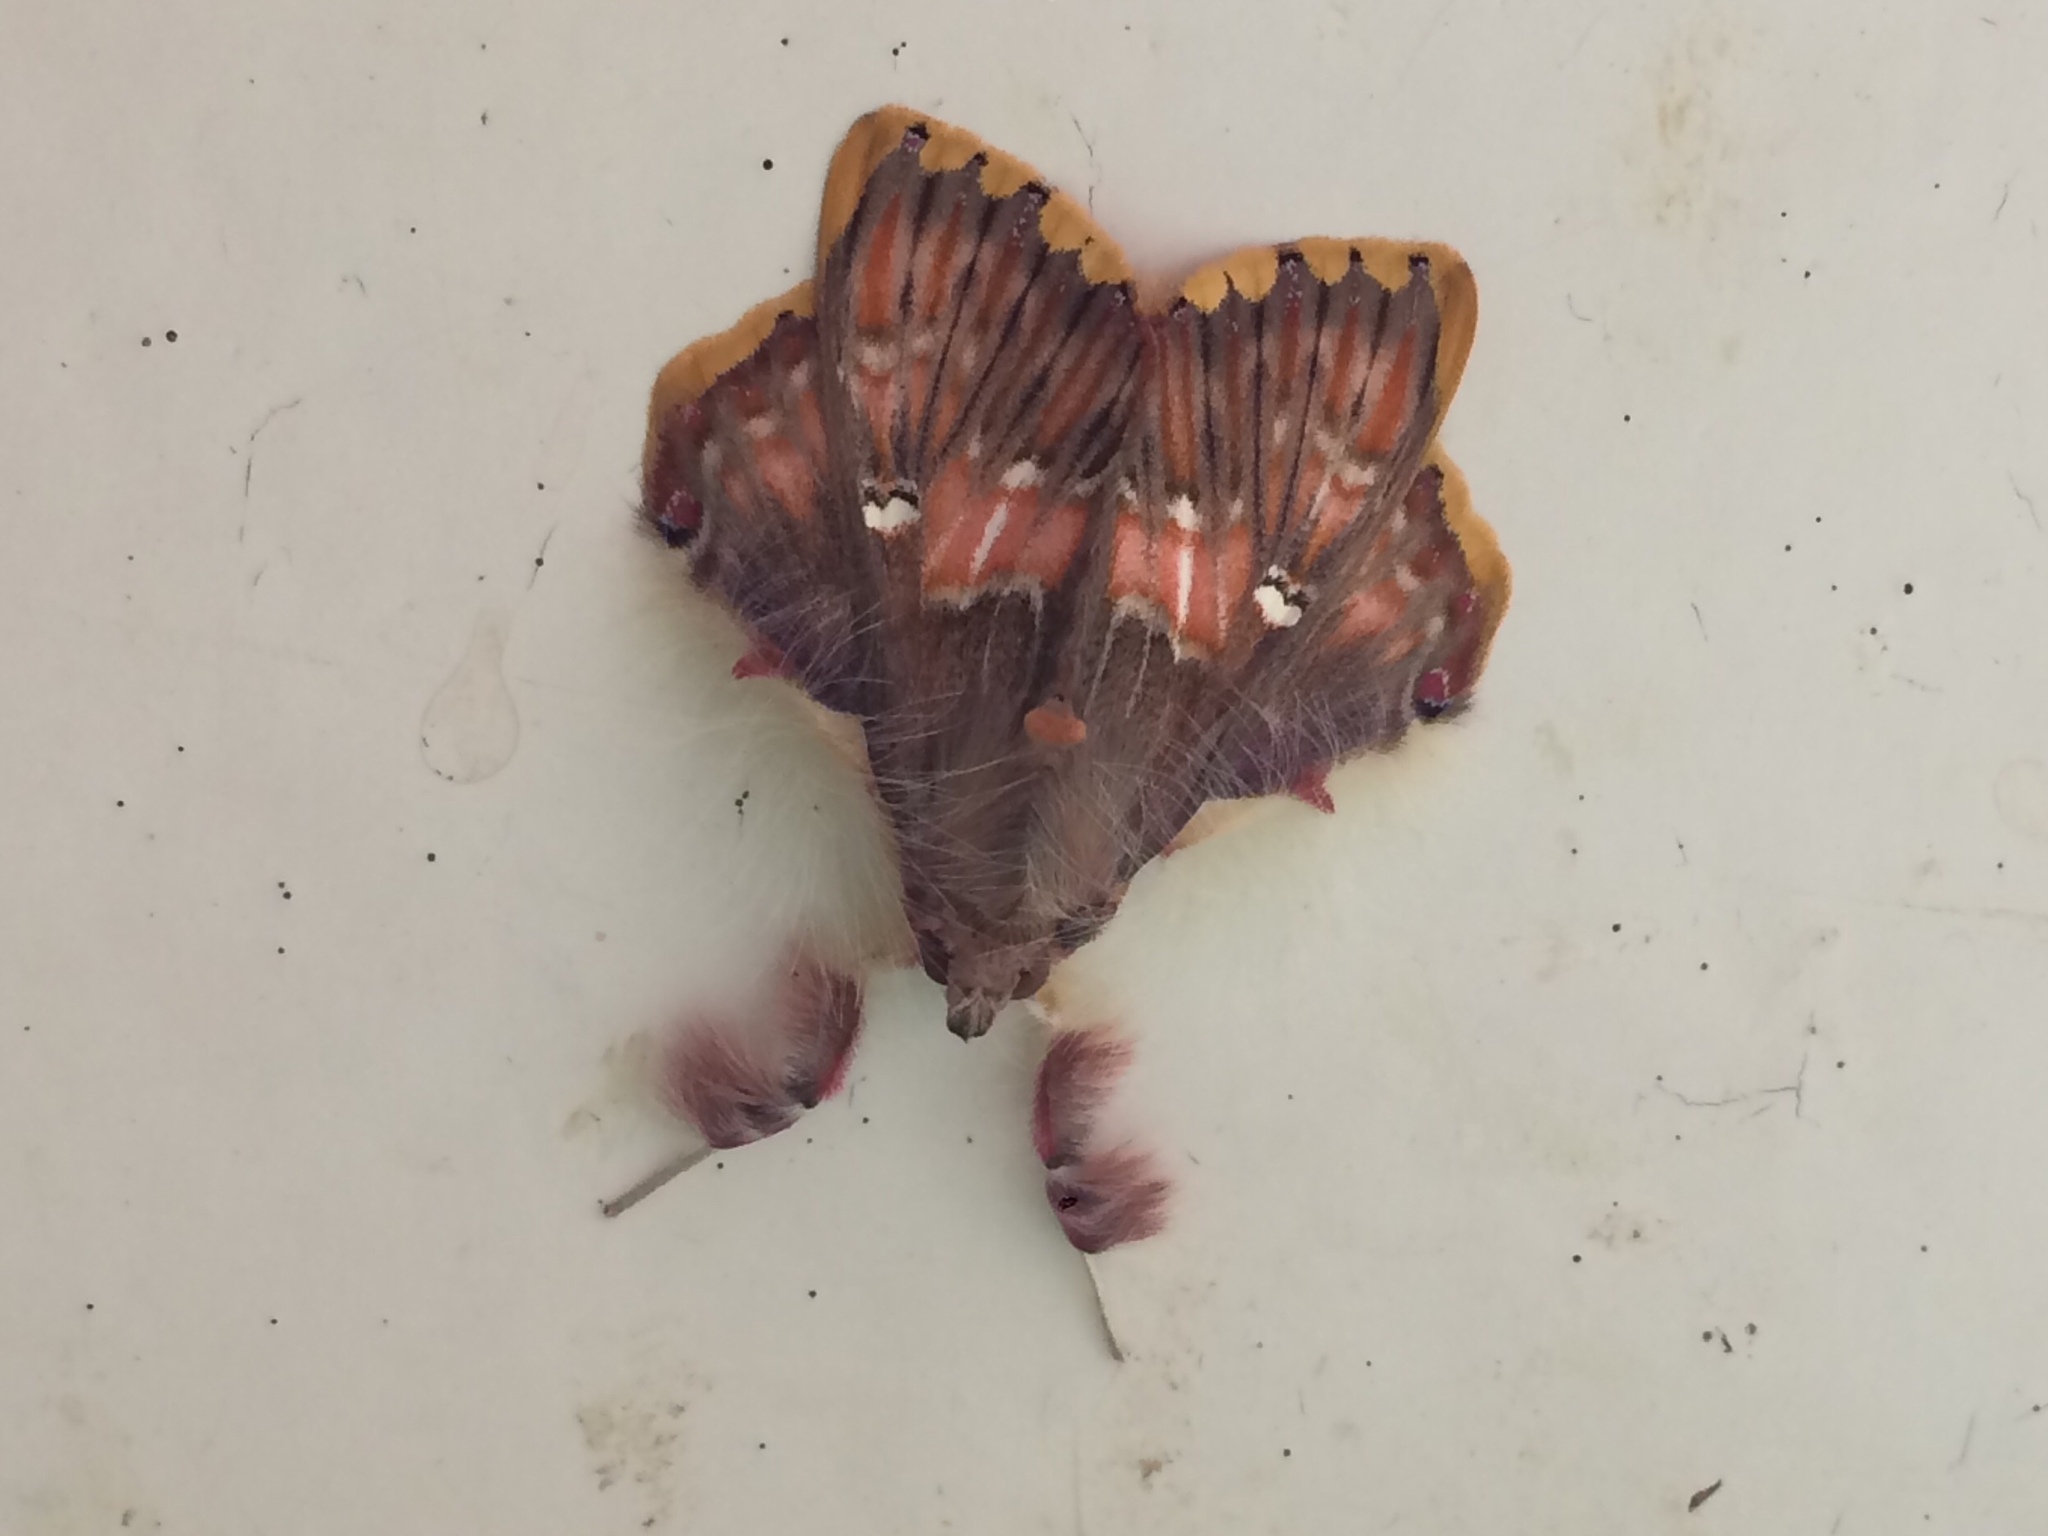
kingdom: Animalia
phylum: Arthropoda
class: Insecta
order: Lepidoptera
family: Erebidae
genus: Sosxetra
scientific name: Sosxetra grata
